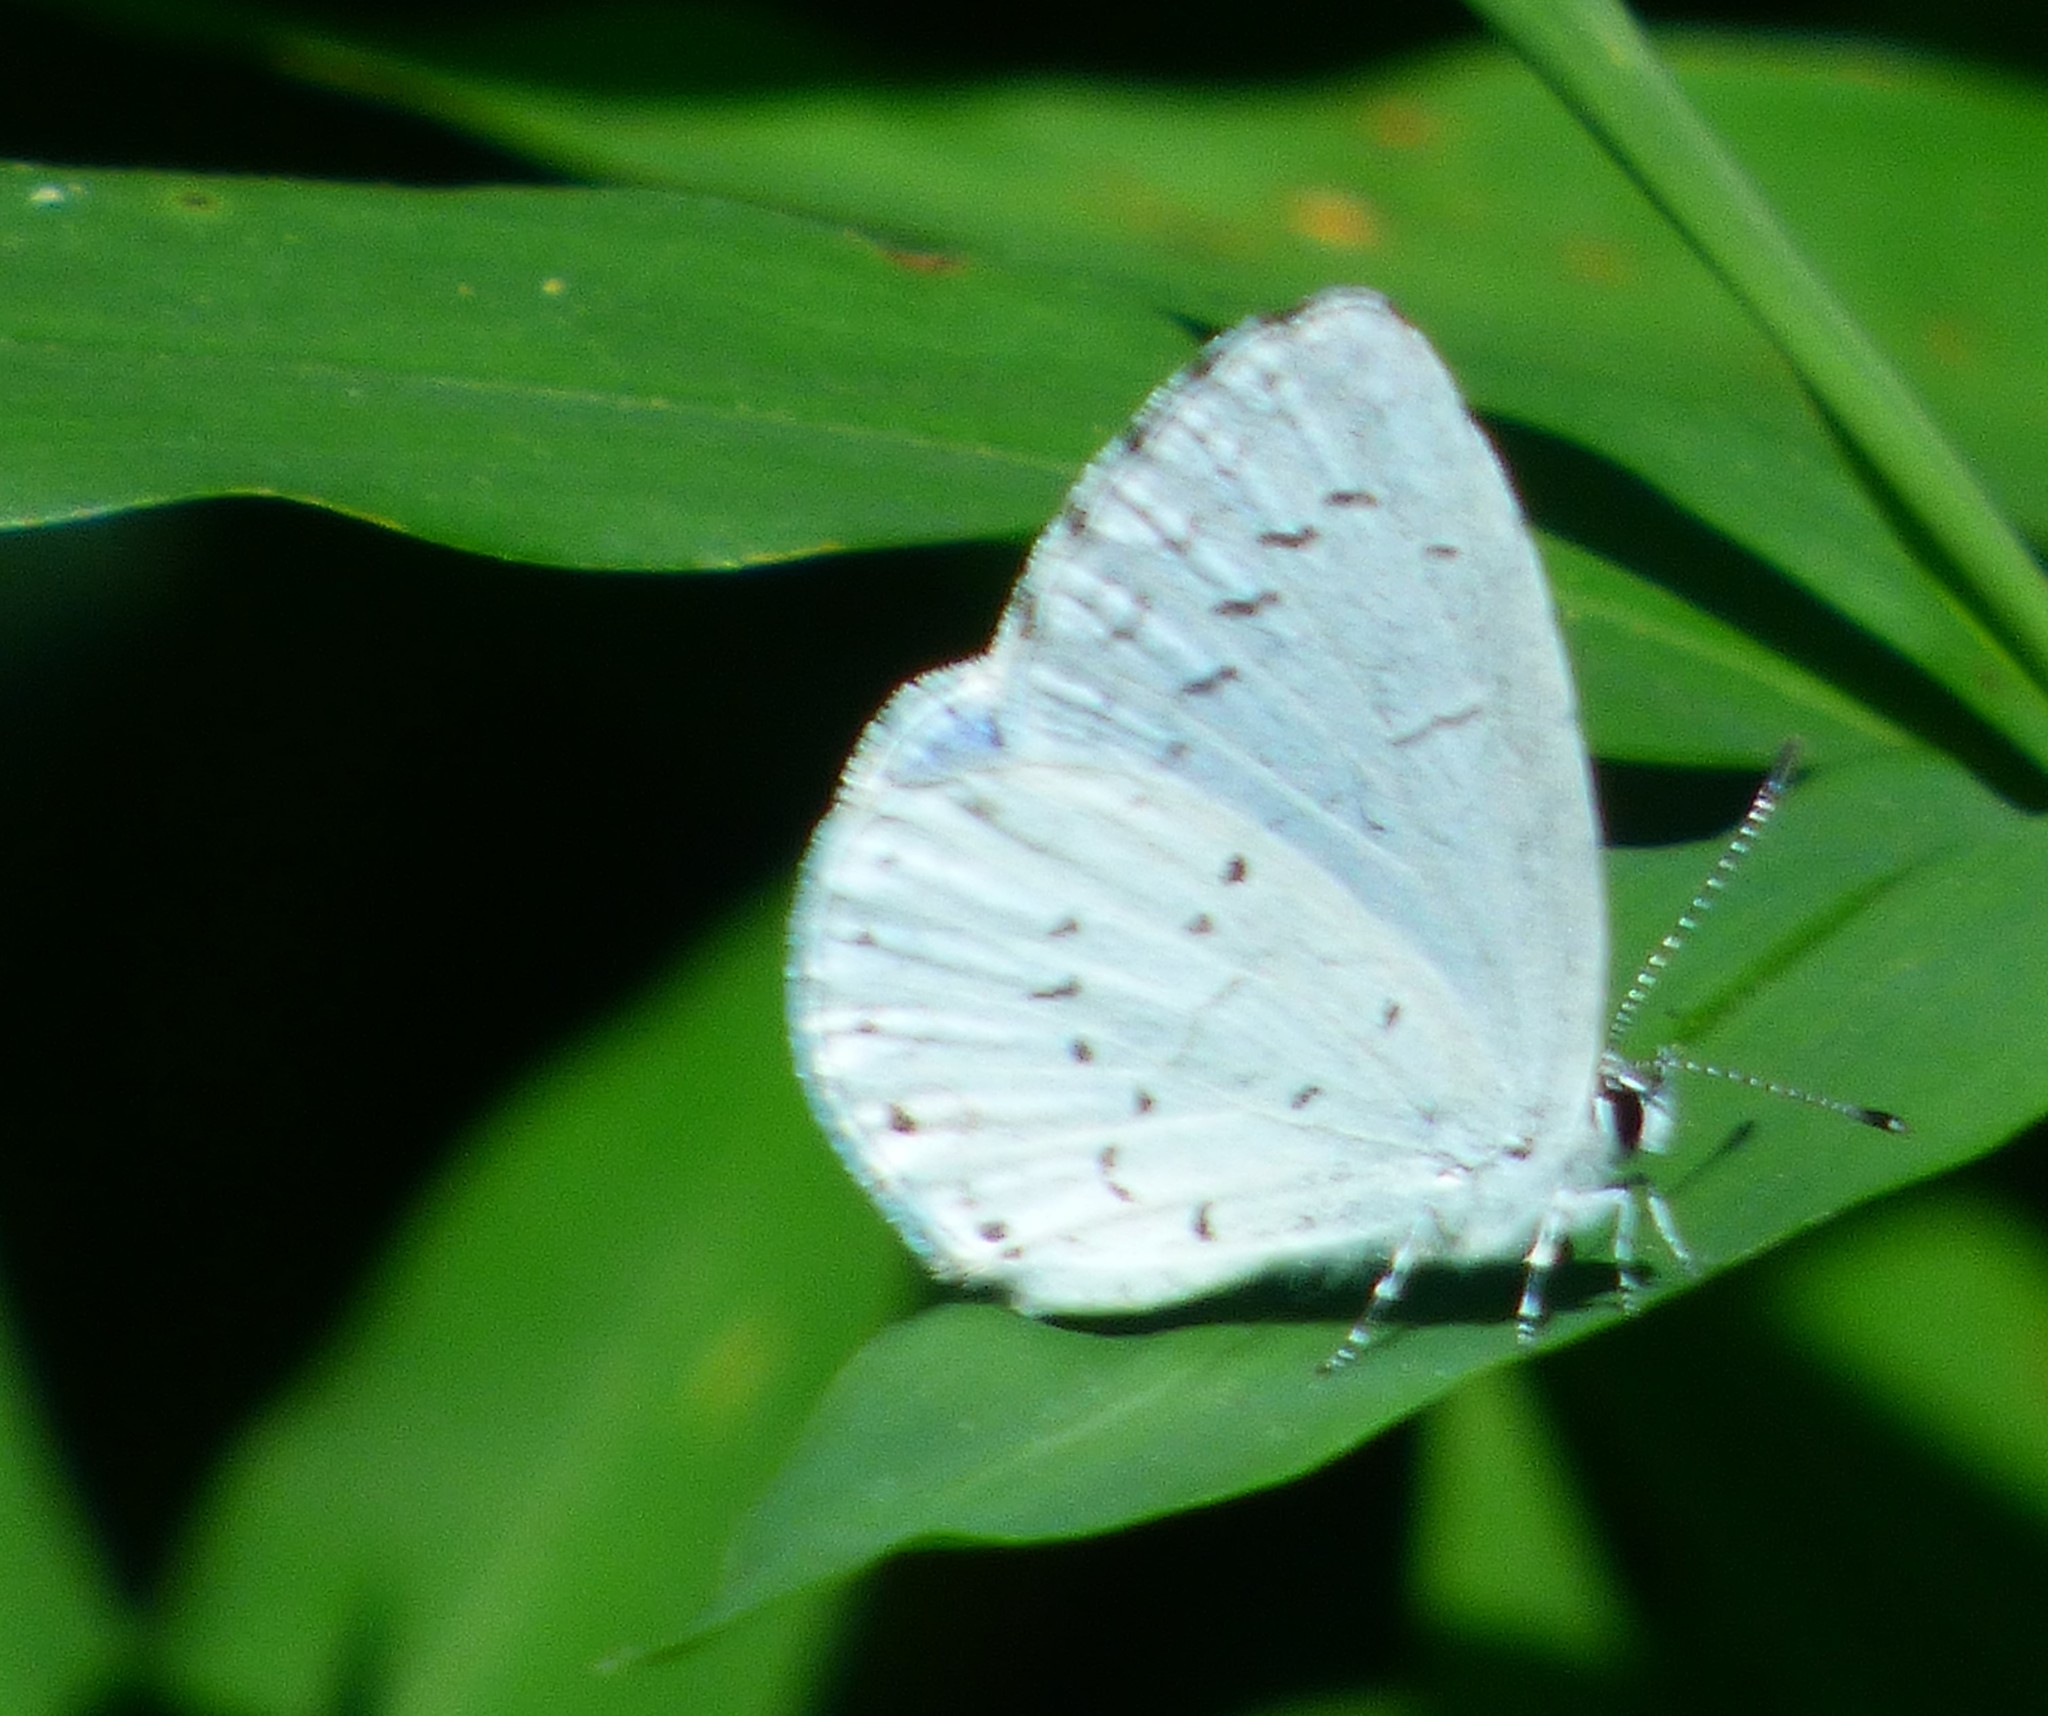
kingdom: Animalia
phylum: Arthropoda
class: Insecta
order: Lepidoptera
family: Lycaenidae
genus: Cyaniris
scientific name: Cyaniris neglecta
